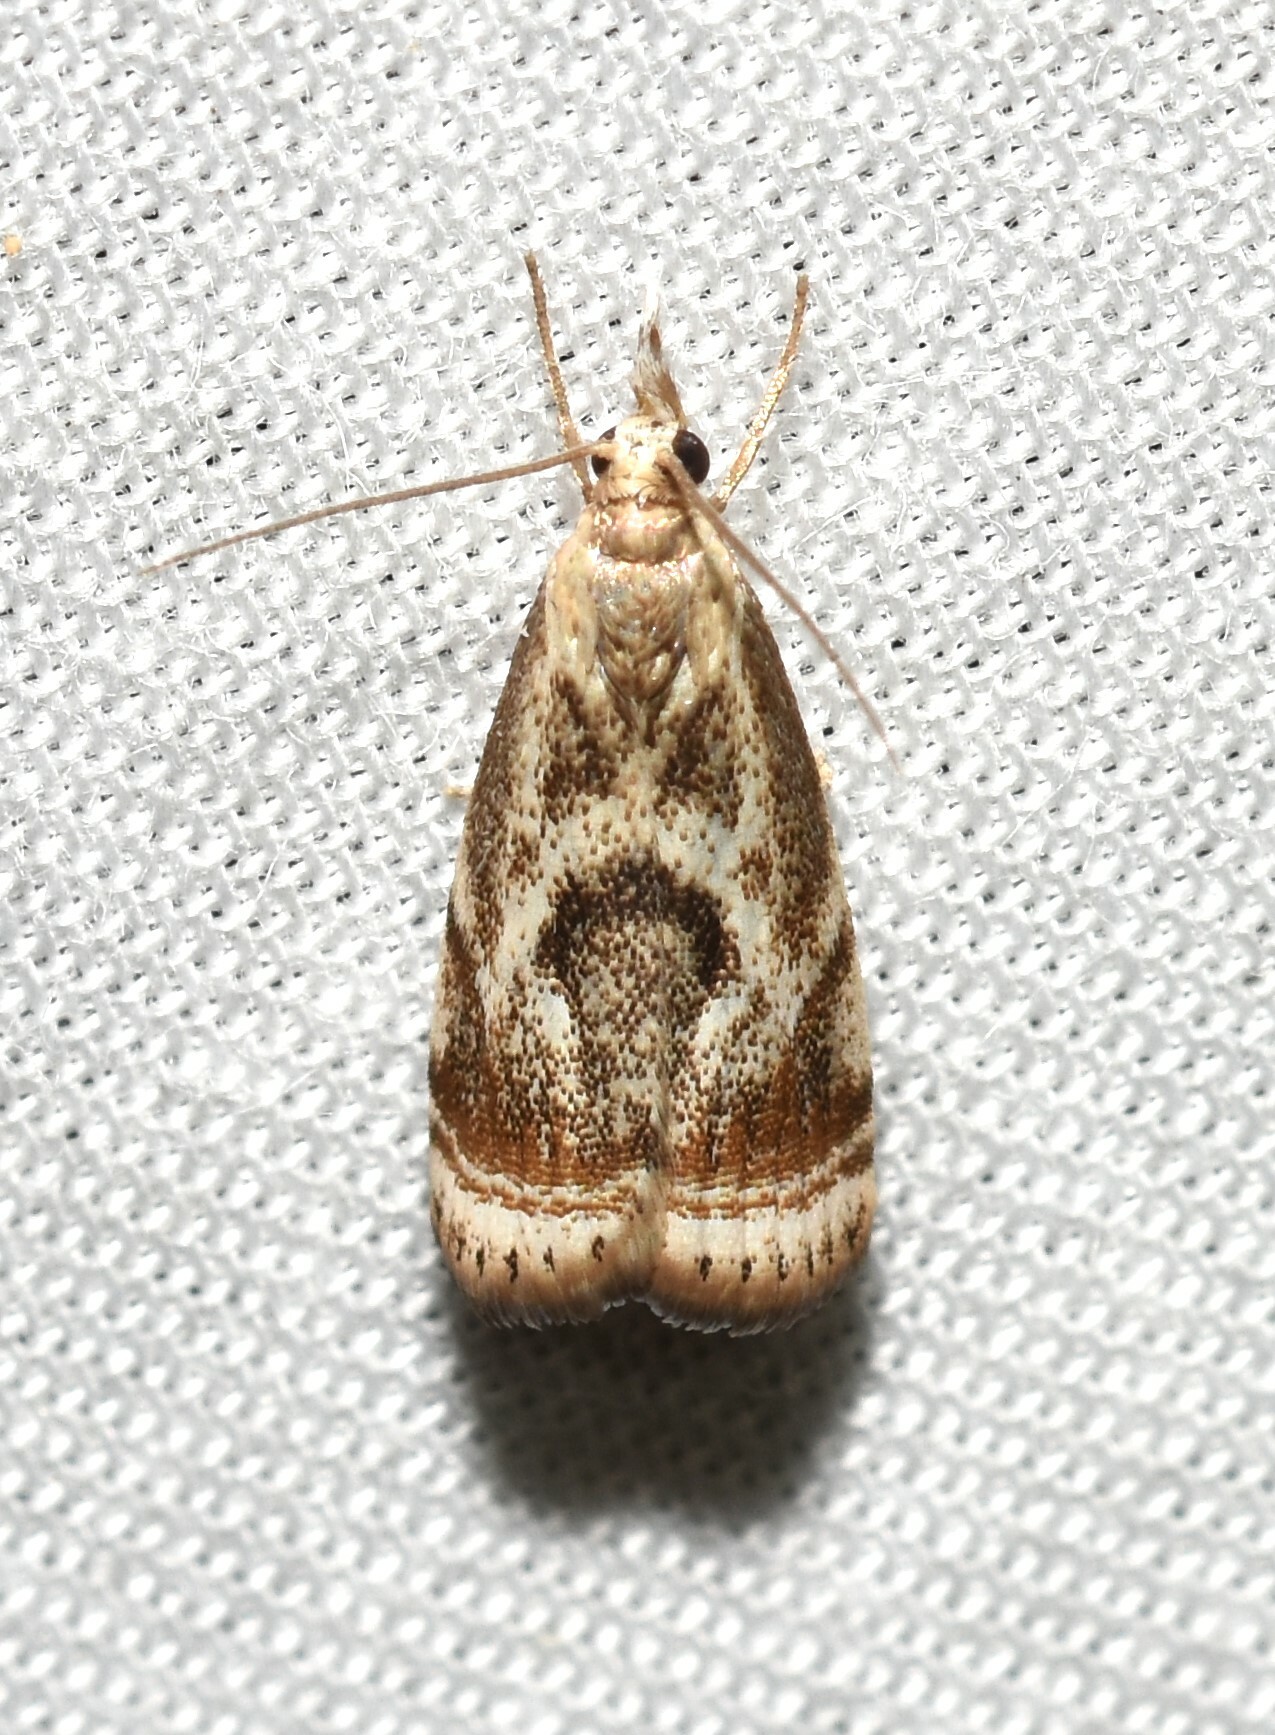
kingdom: Animalia
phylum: Arthropoda
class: Insecta
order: Lepidoptera
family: Crambidae
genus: Microcrambus
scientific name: Microcrambus elegans
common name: Elegant grass-veneer
